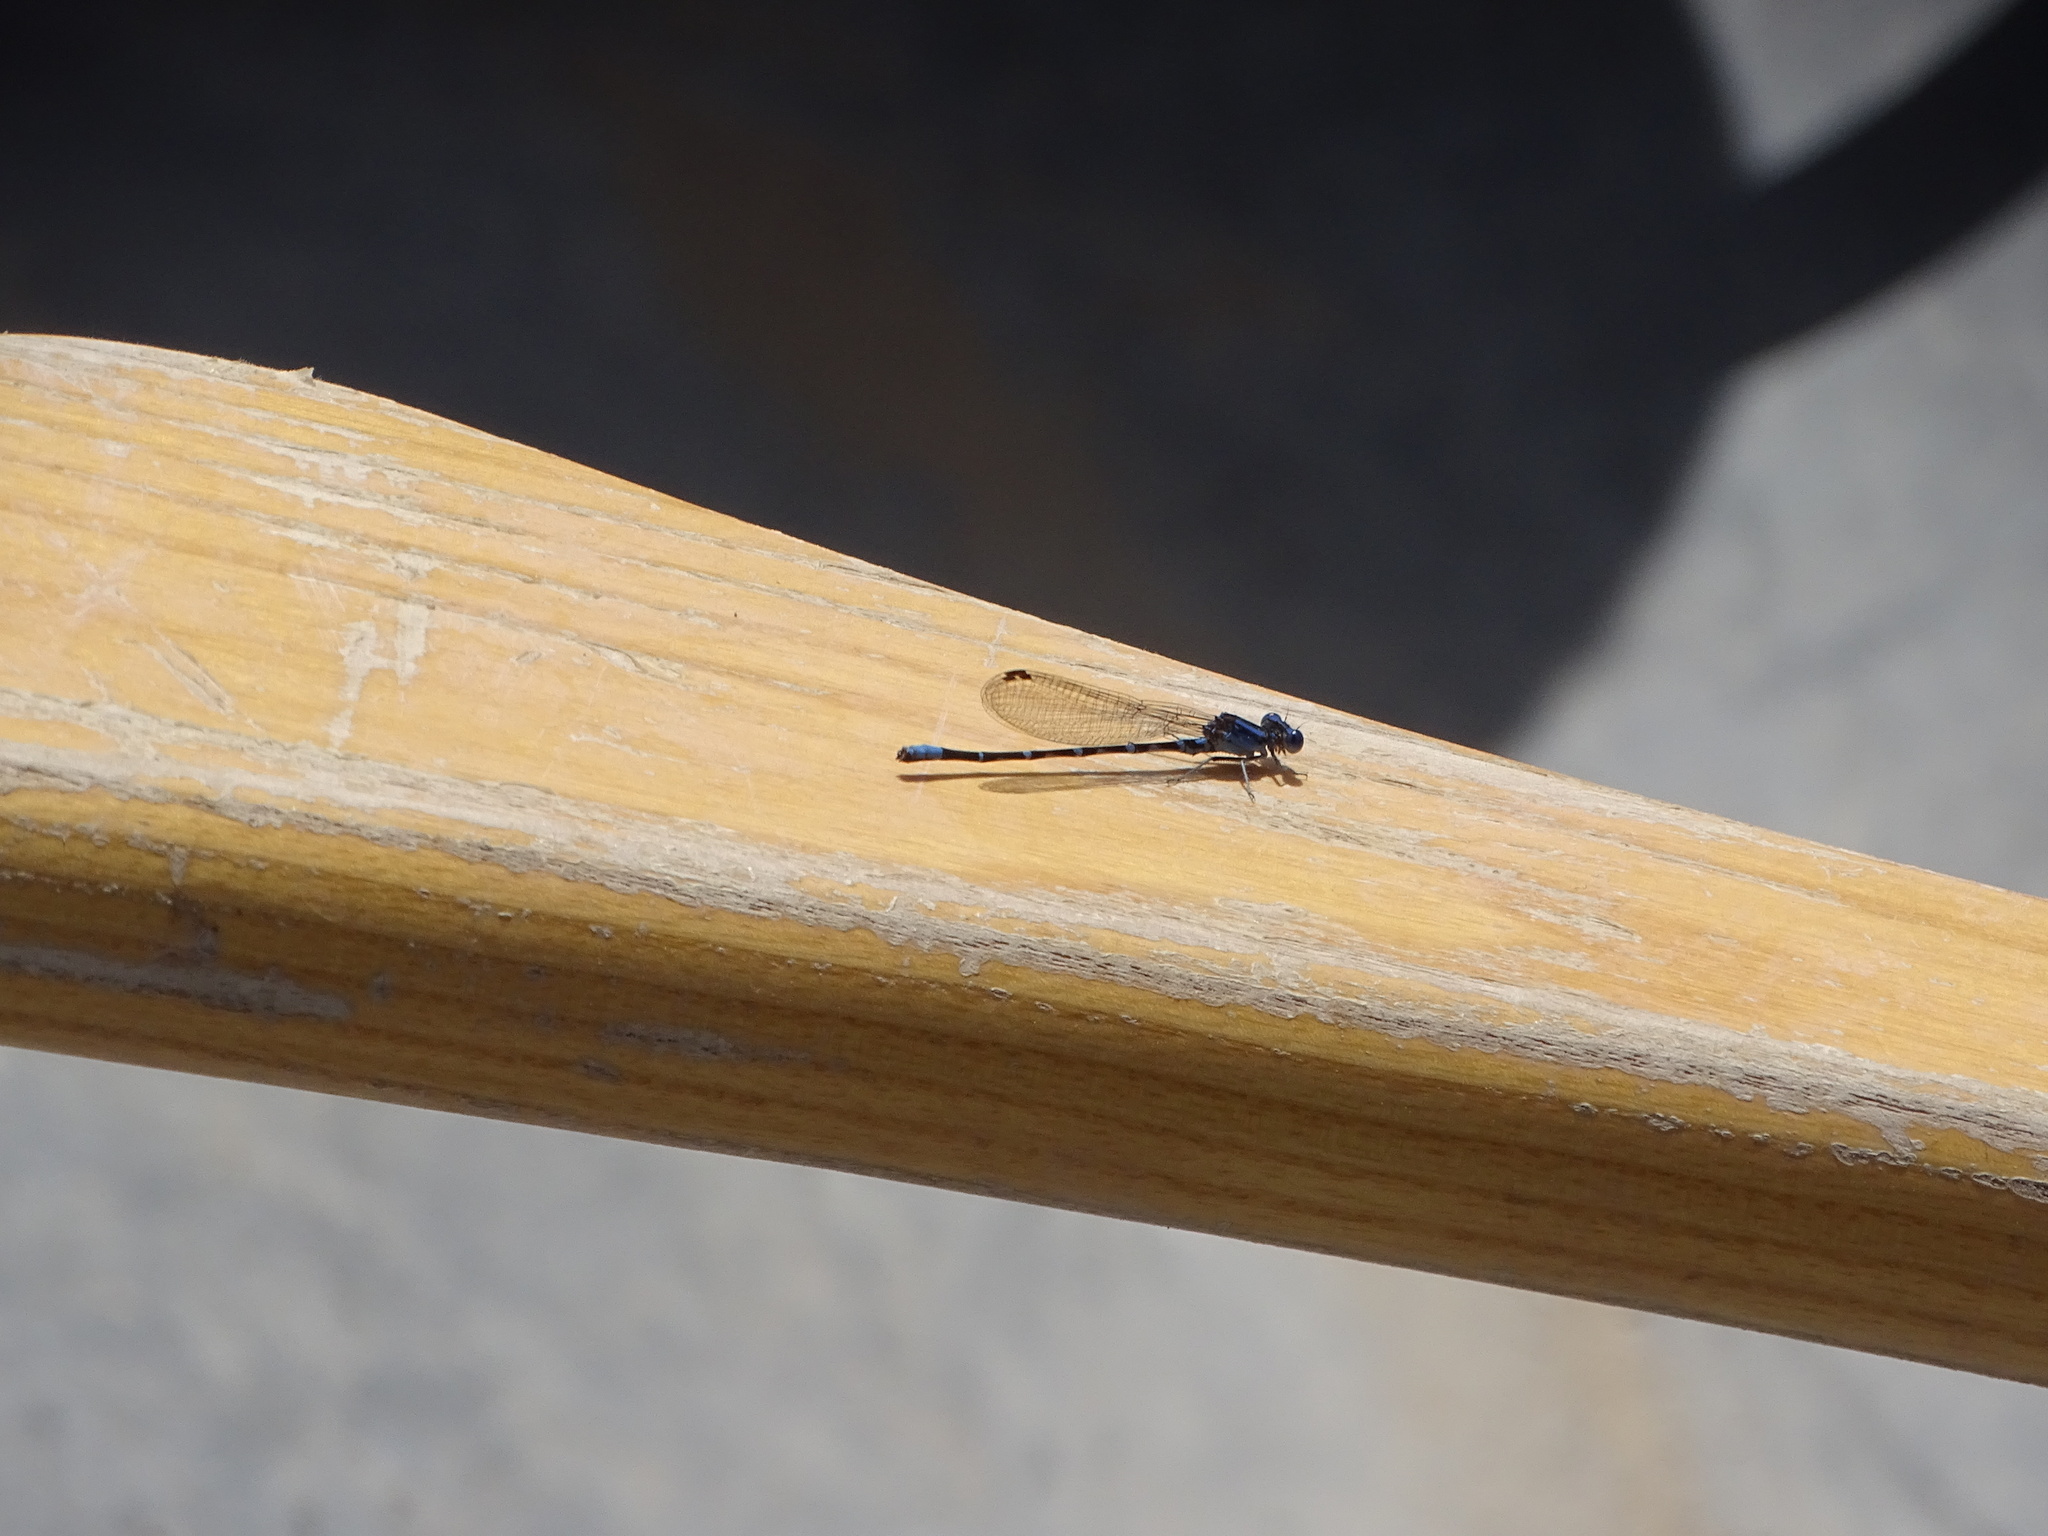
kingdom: Animalia
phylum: Arthropoda
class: Insecta
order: Odonata
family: Coenagrionidae
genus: Argia
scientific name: Argia sedula
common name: Blue-ringed dancer
